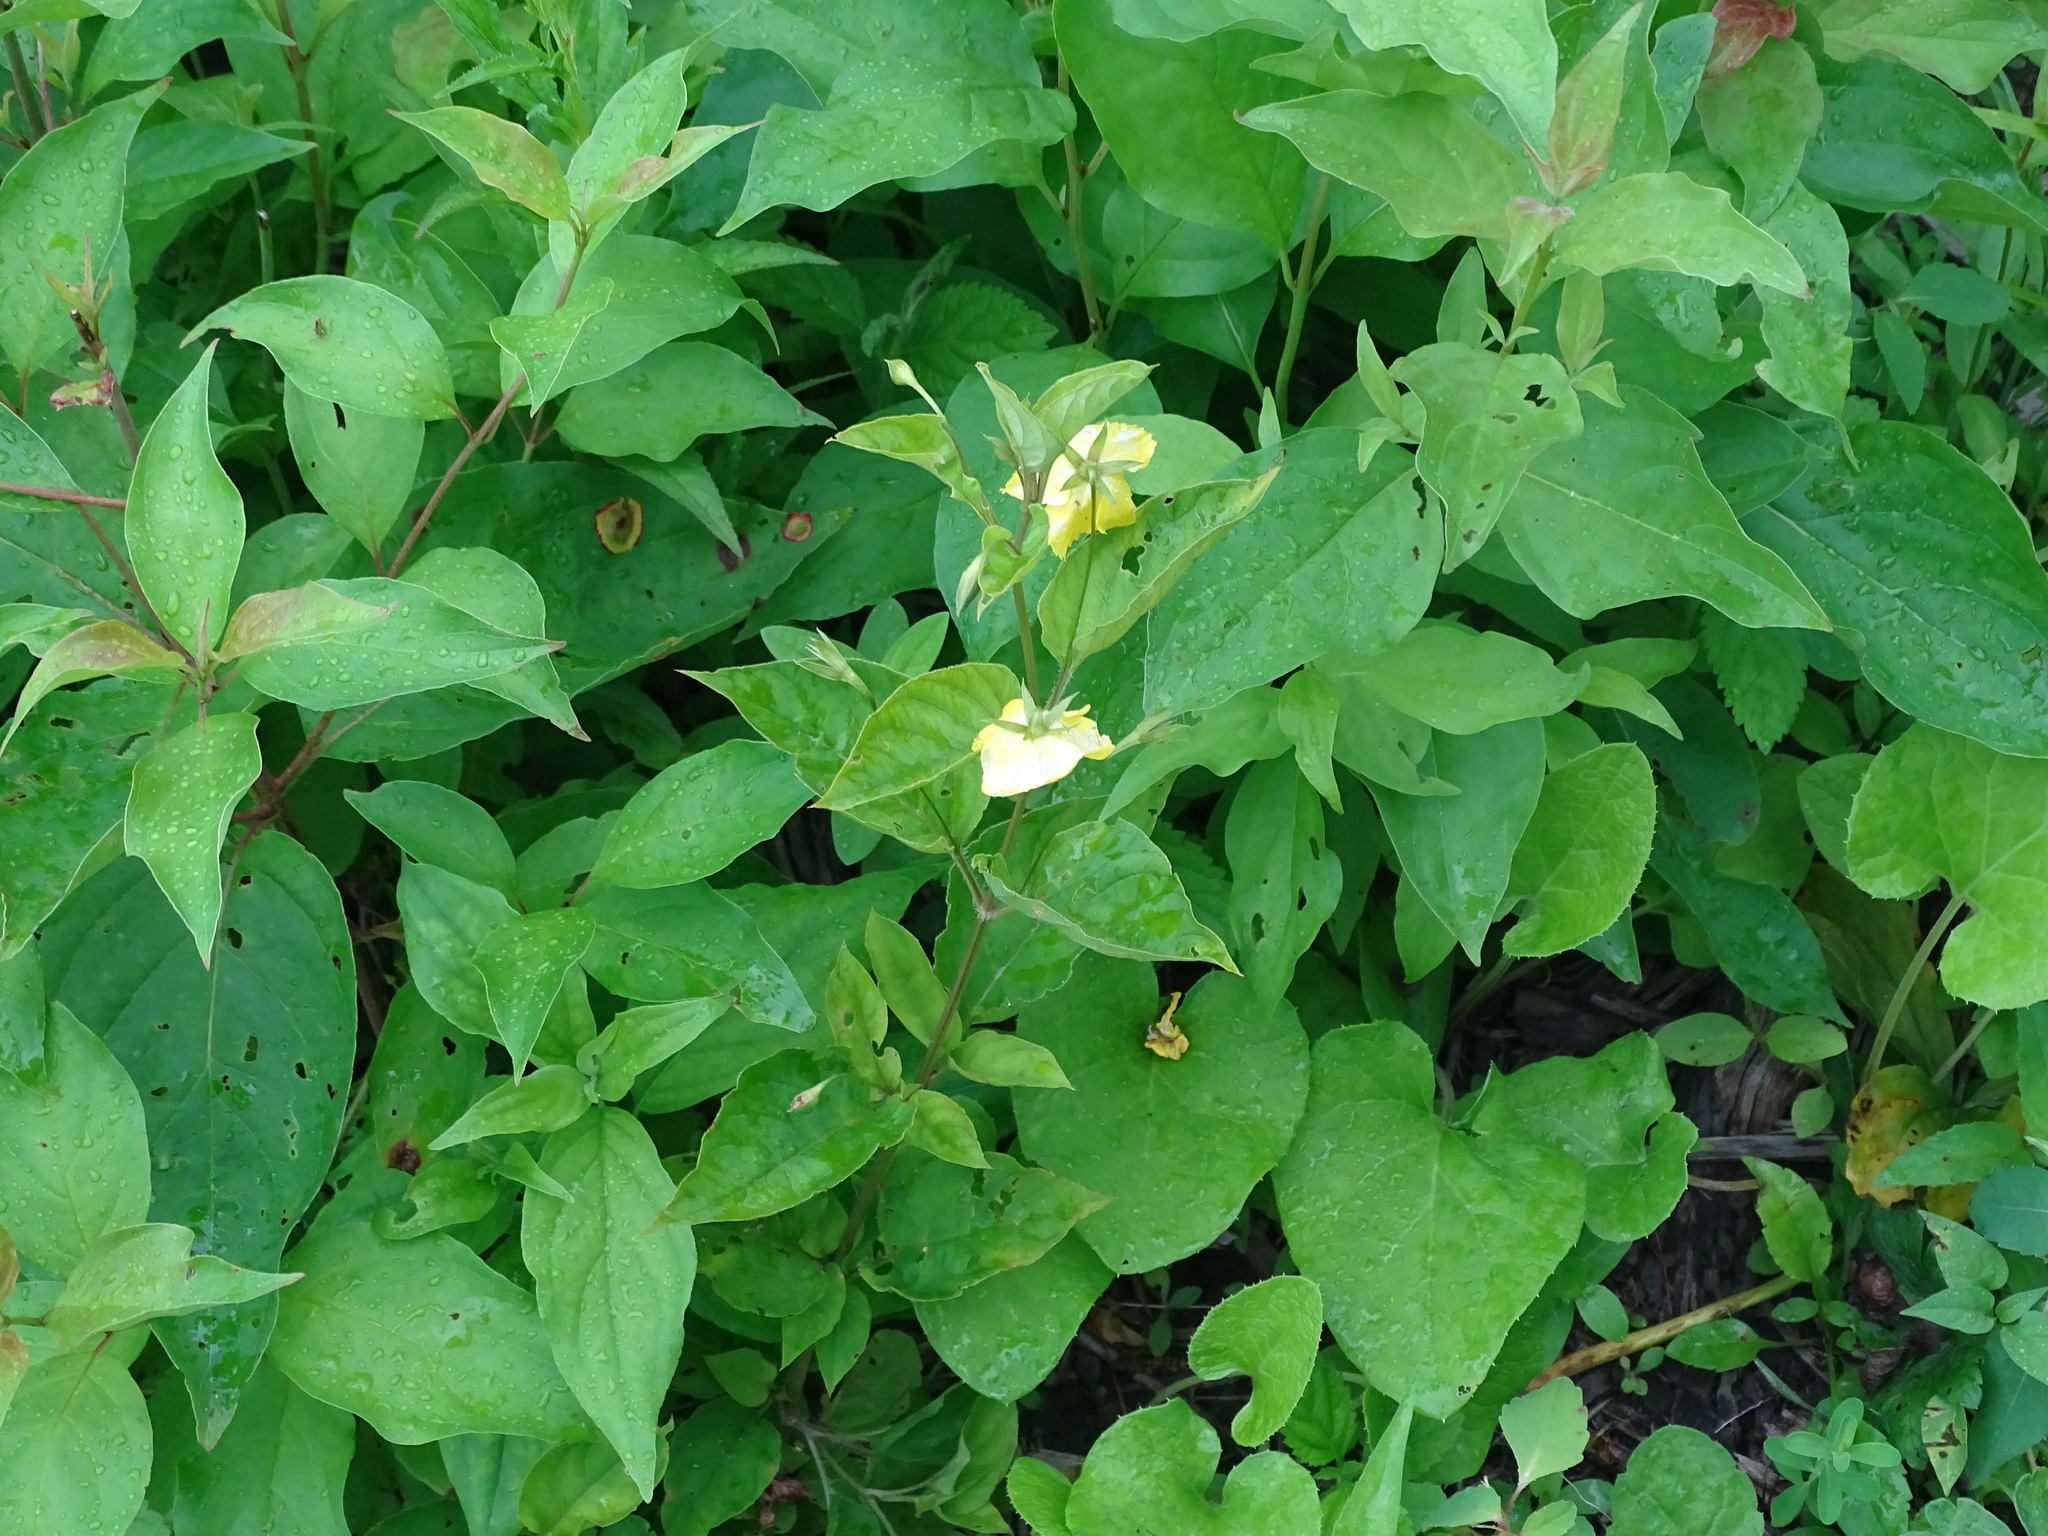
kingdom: Plantae
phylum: Tracheophyta
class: Magnoliopsida
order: Ericales
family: Primulaceae
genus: Lysimachia
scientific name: Lysimachia ciliata
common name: Fringed loosestrife
